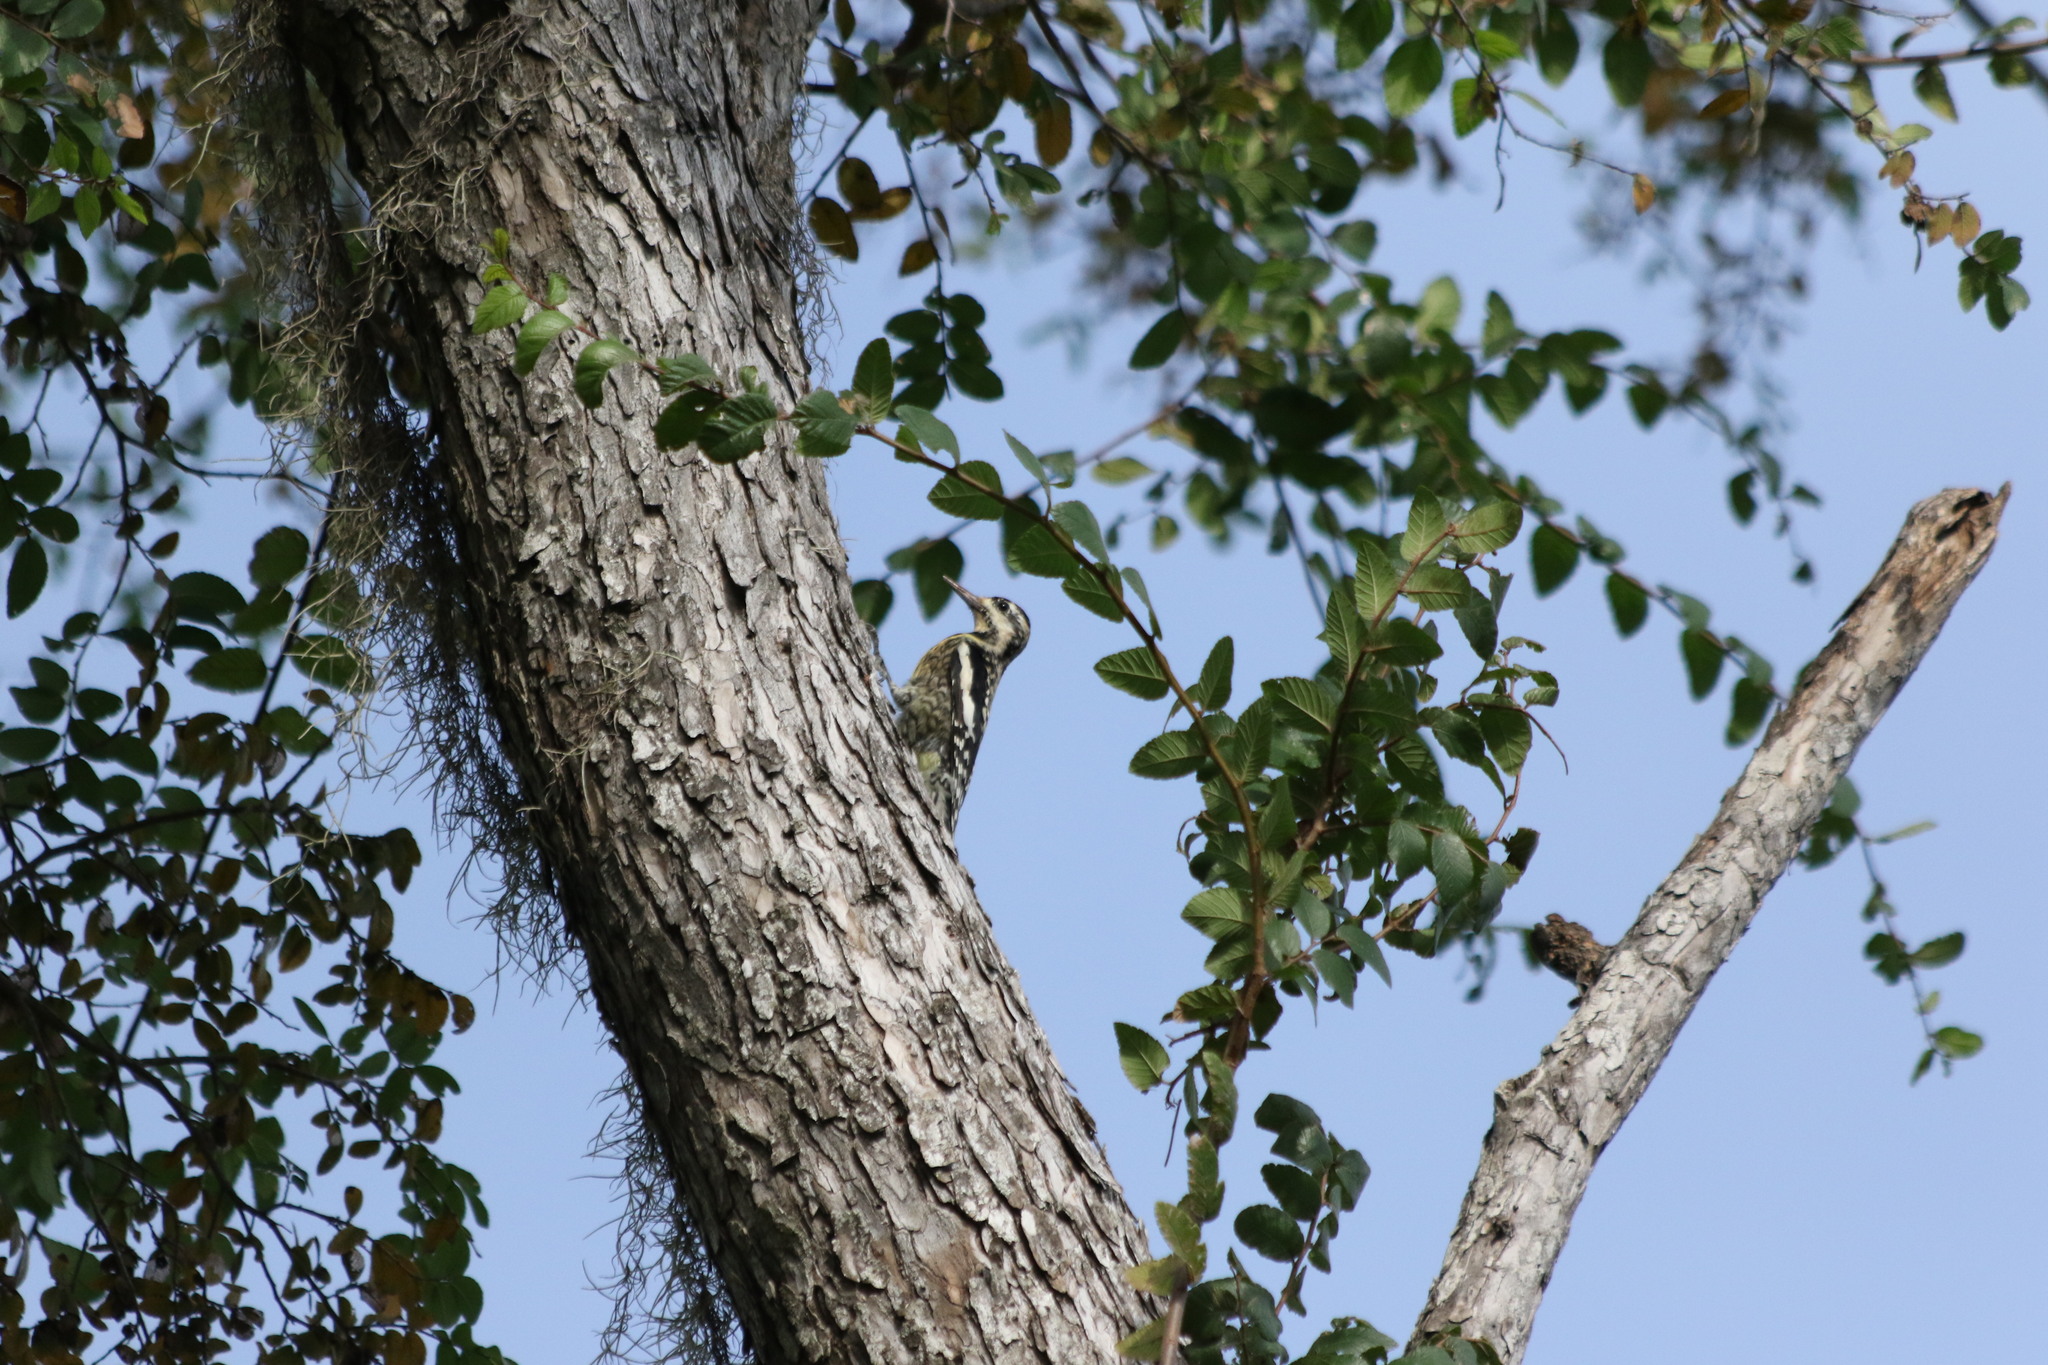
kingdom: Animalia
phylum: Chordata
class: Aves
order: Piciformes
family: Picidae
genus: Sphyrapicus
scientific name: Sphyrapicus varius
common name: Yellow-bellied sapsucker
